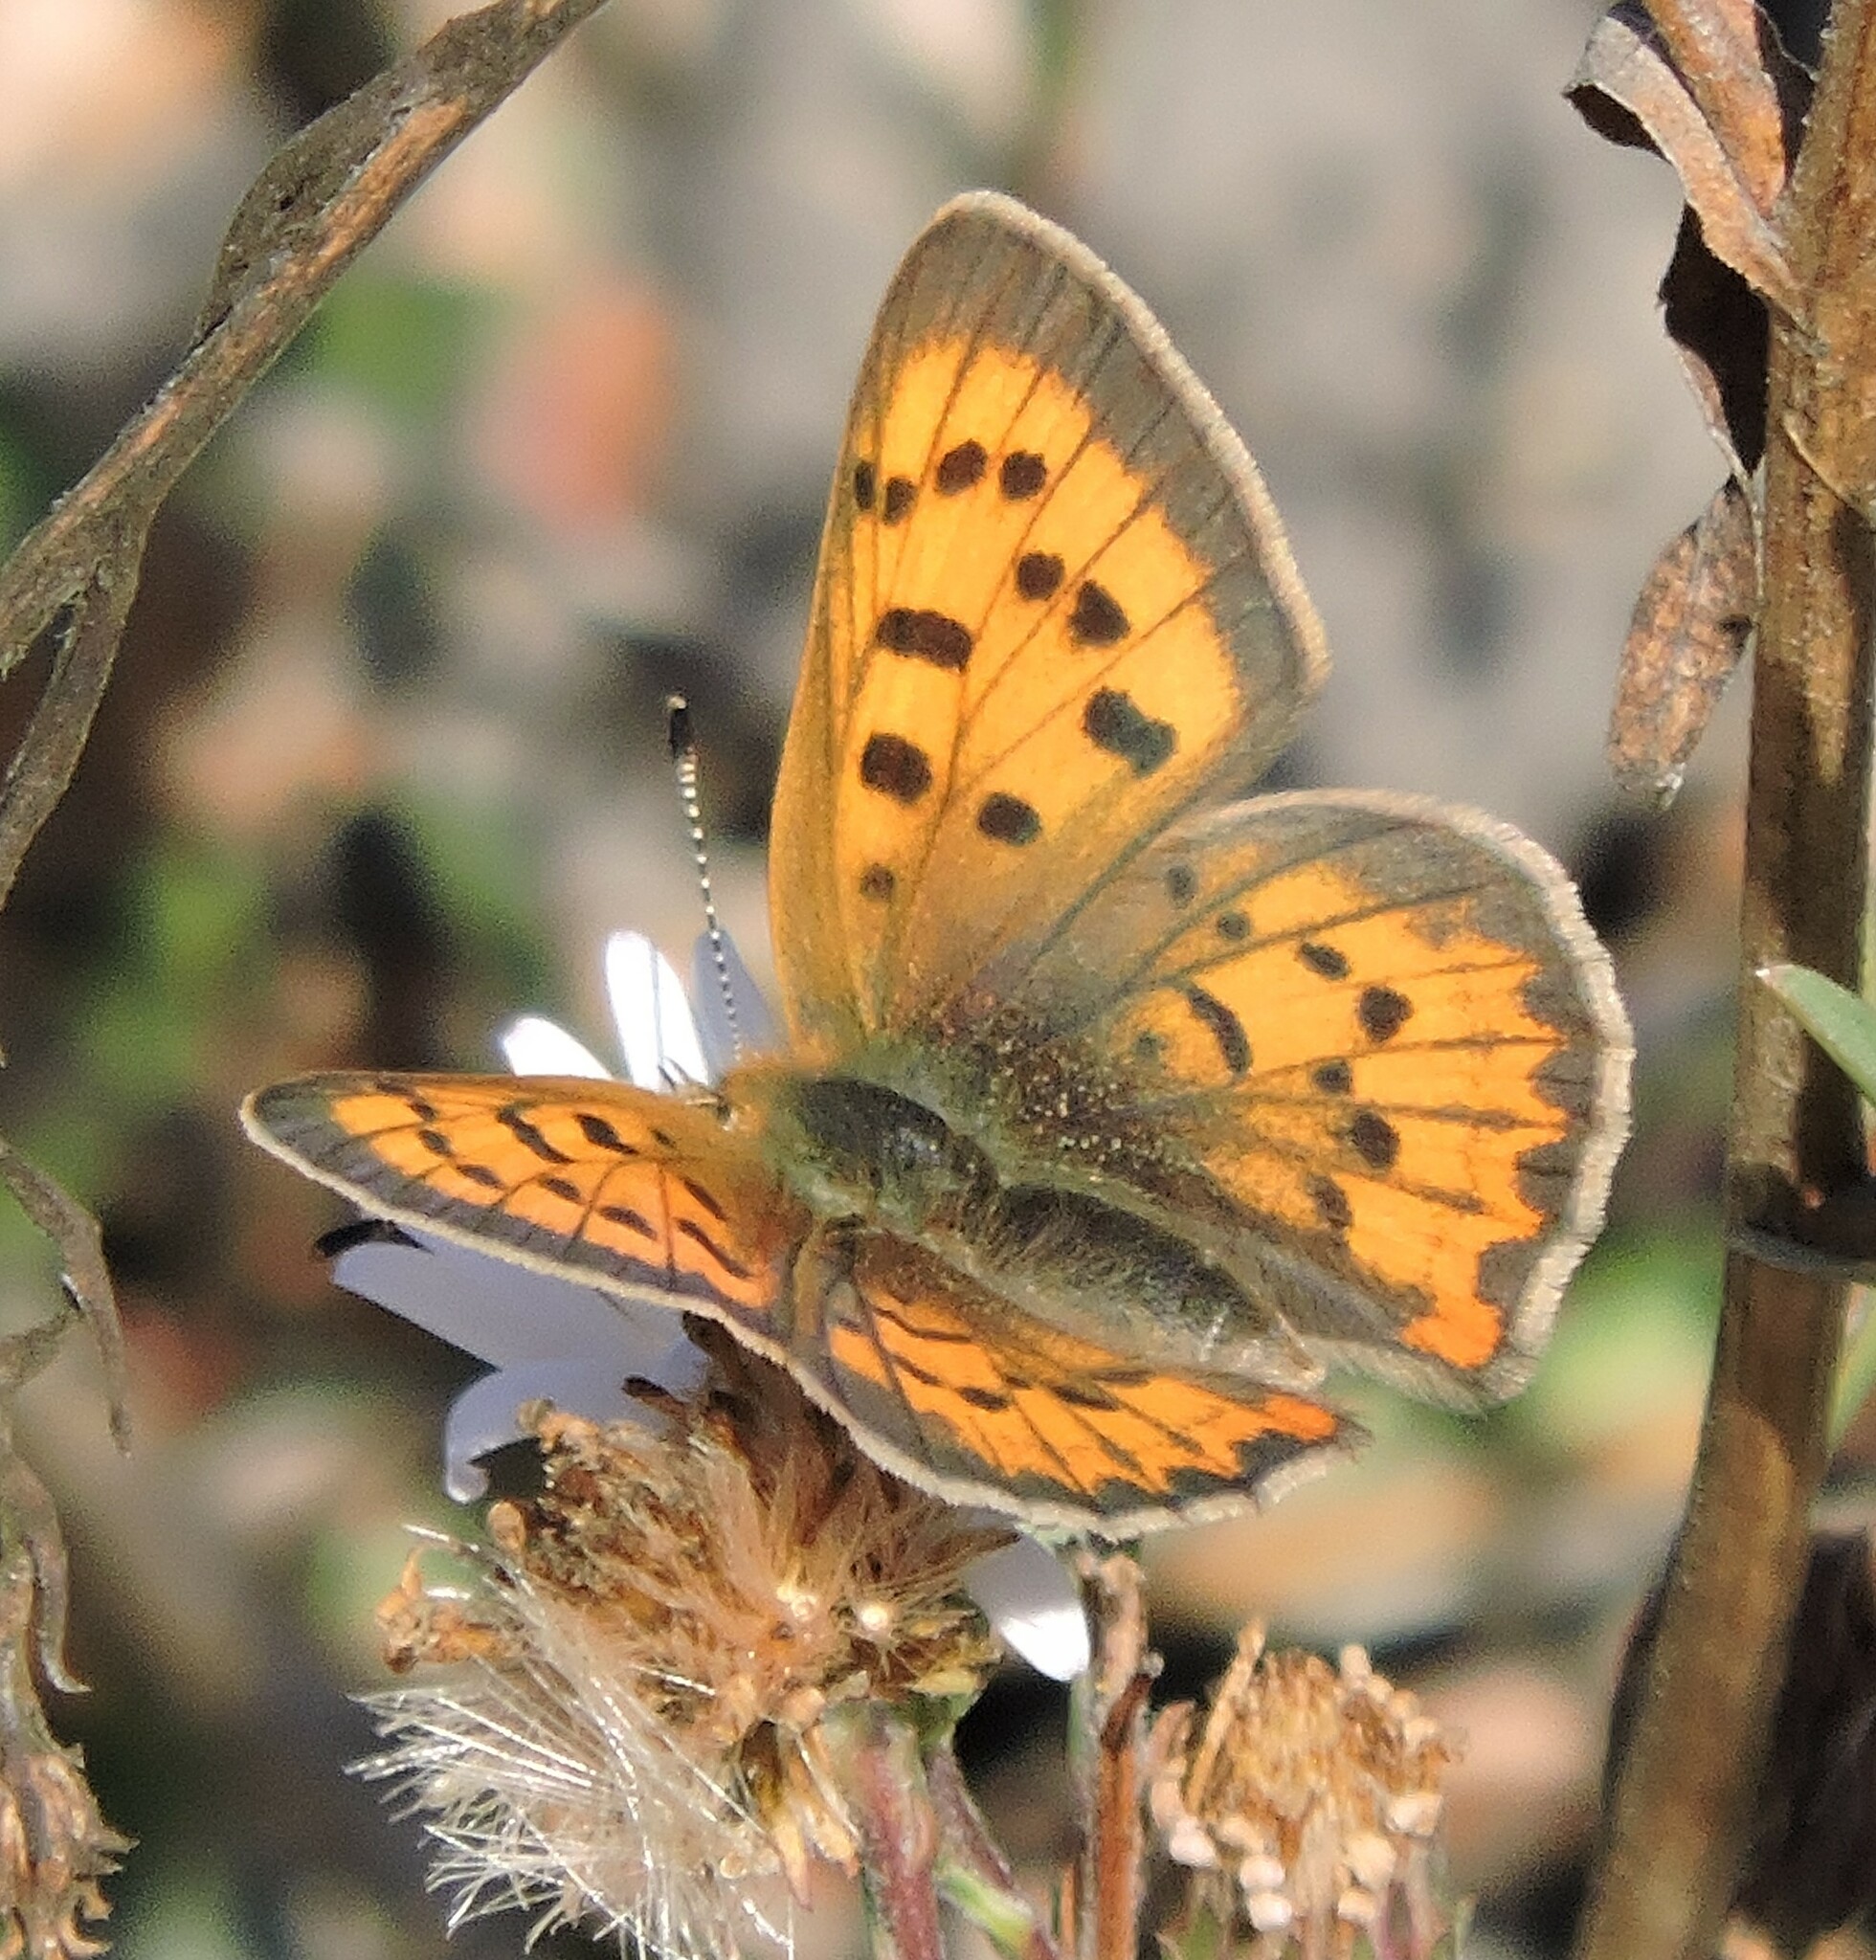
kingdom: Animalia
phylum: Arthropoda
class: Insecta
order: Lepidoptera
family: Lycaenidae
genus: Tharsalea
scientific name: Tharsalea helloides
